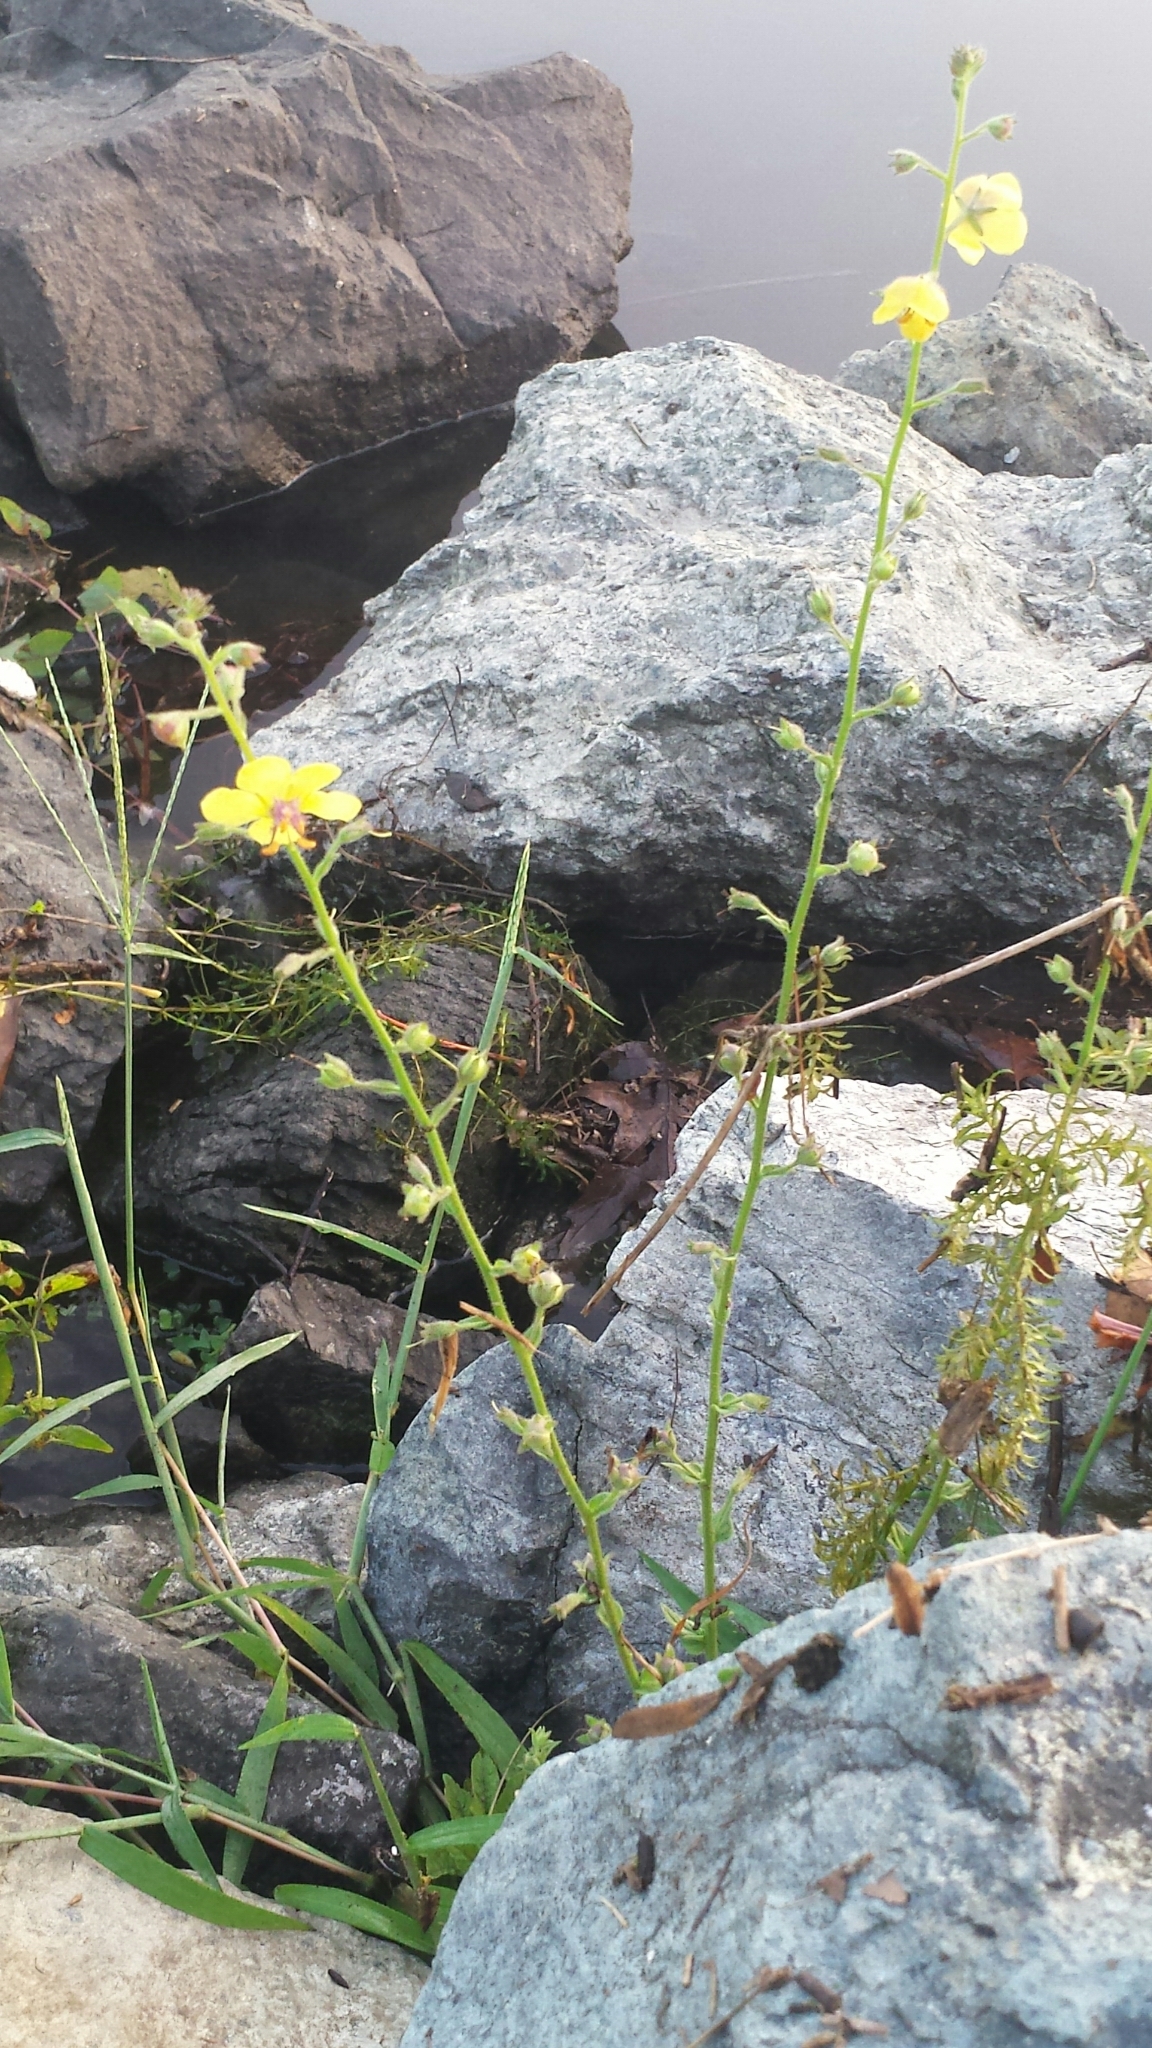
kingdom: Plantae
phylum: Tracheophyta
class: Magnoliopsida
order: Lamiales
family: Scrophulariaceae
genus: Verbascum
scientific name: Verbascum blattaria
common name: Moth mullein
